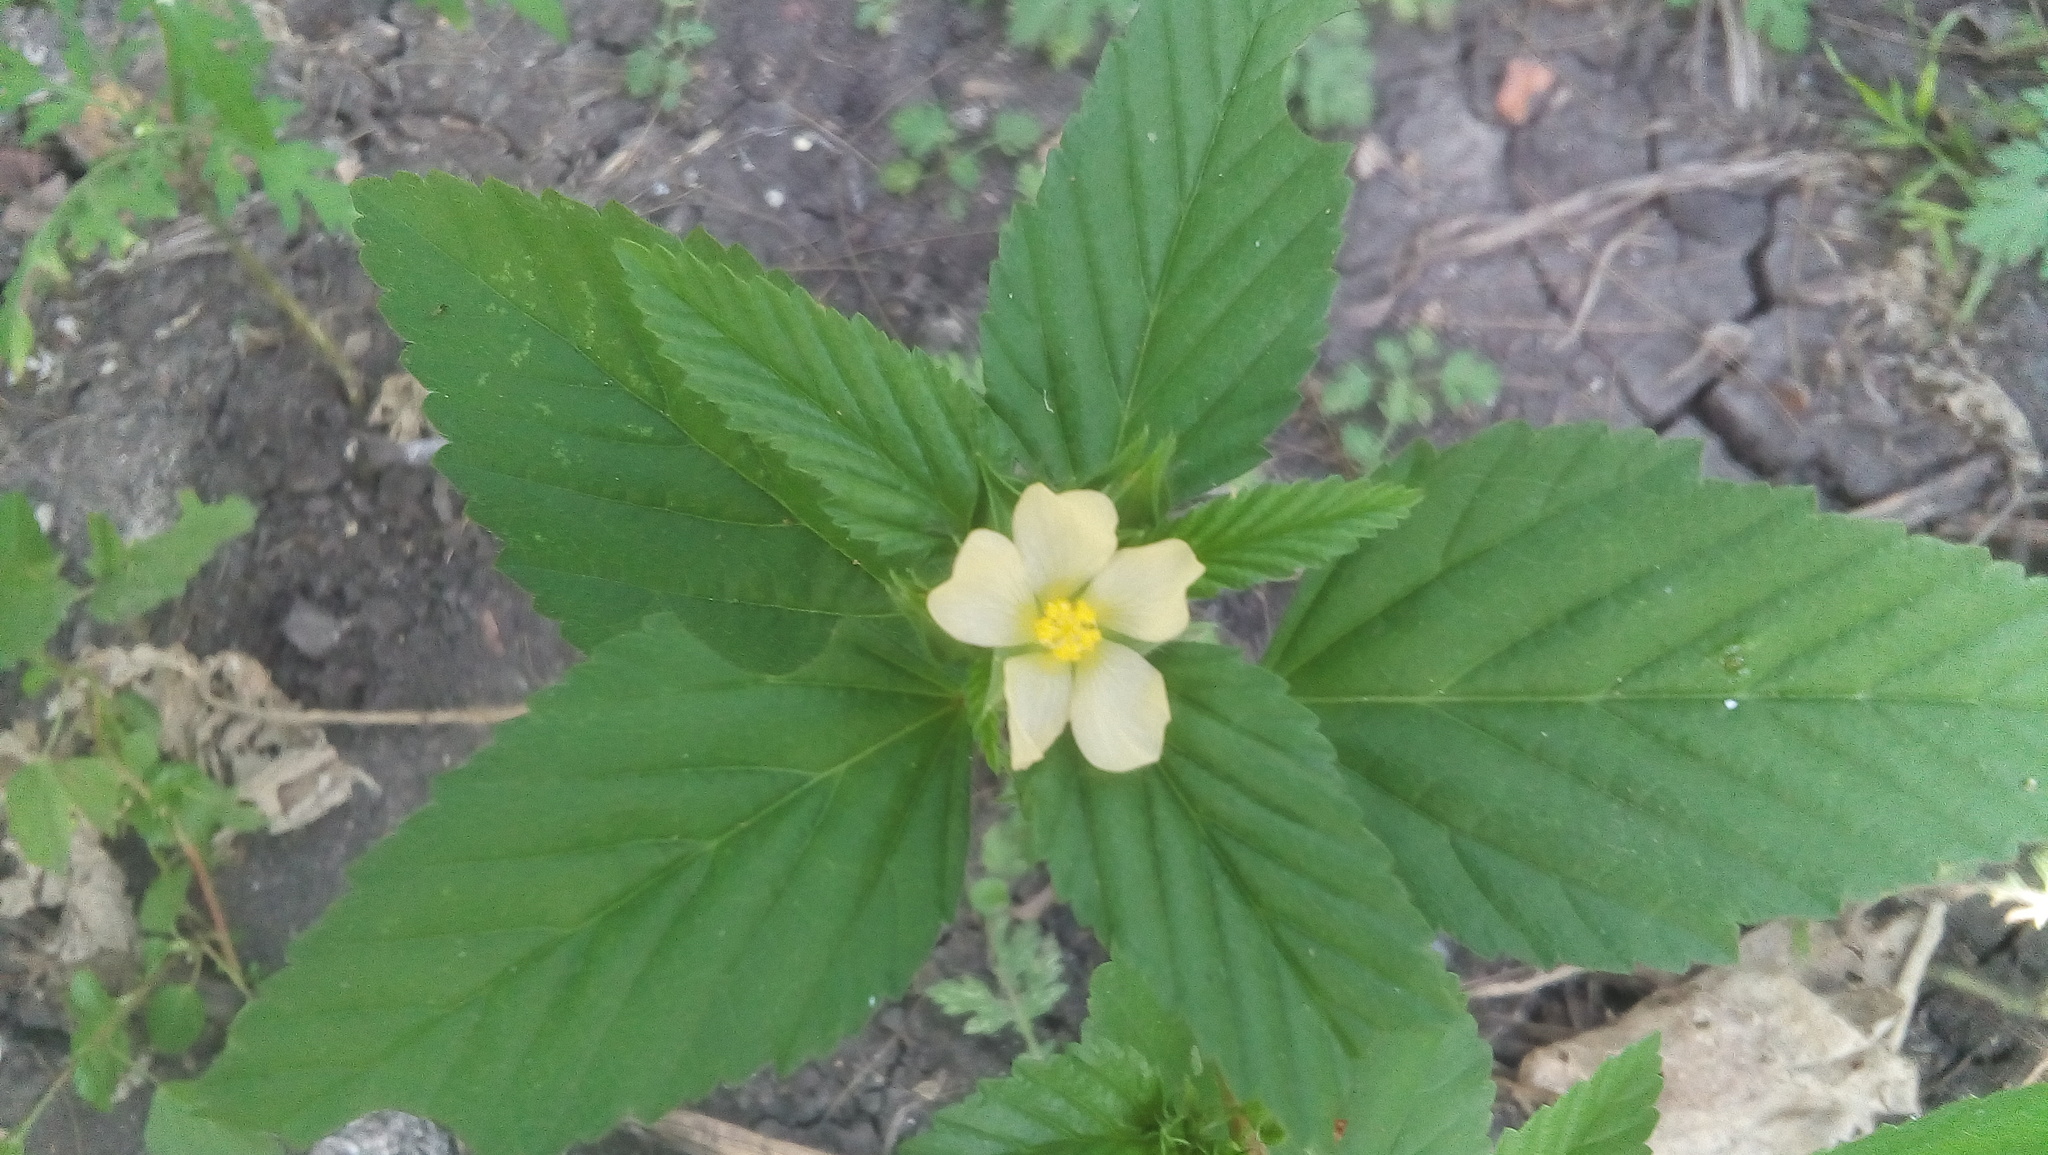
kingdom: Plantae
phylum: Tracheophyta
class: Magnoliopsida
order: Malvales
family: Malvaceae
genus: Malvastrum
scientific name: Malvastrum coromandelianum
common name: Threelobe false mallow
